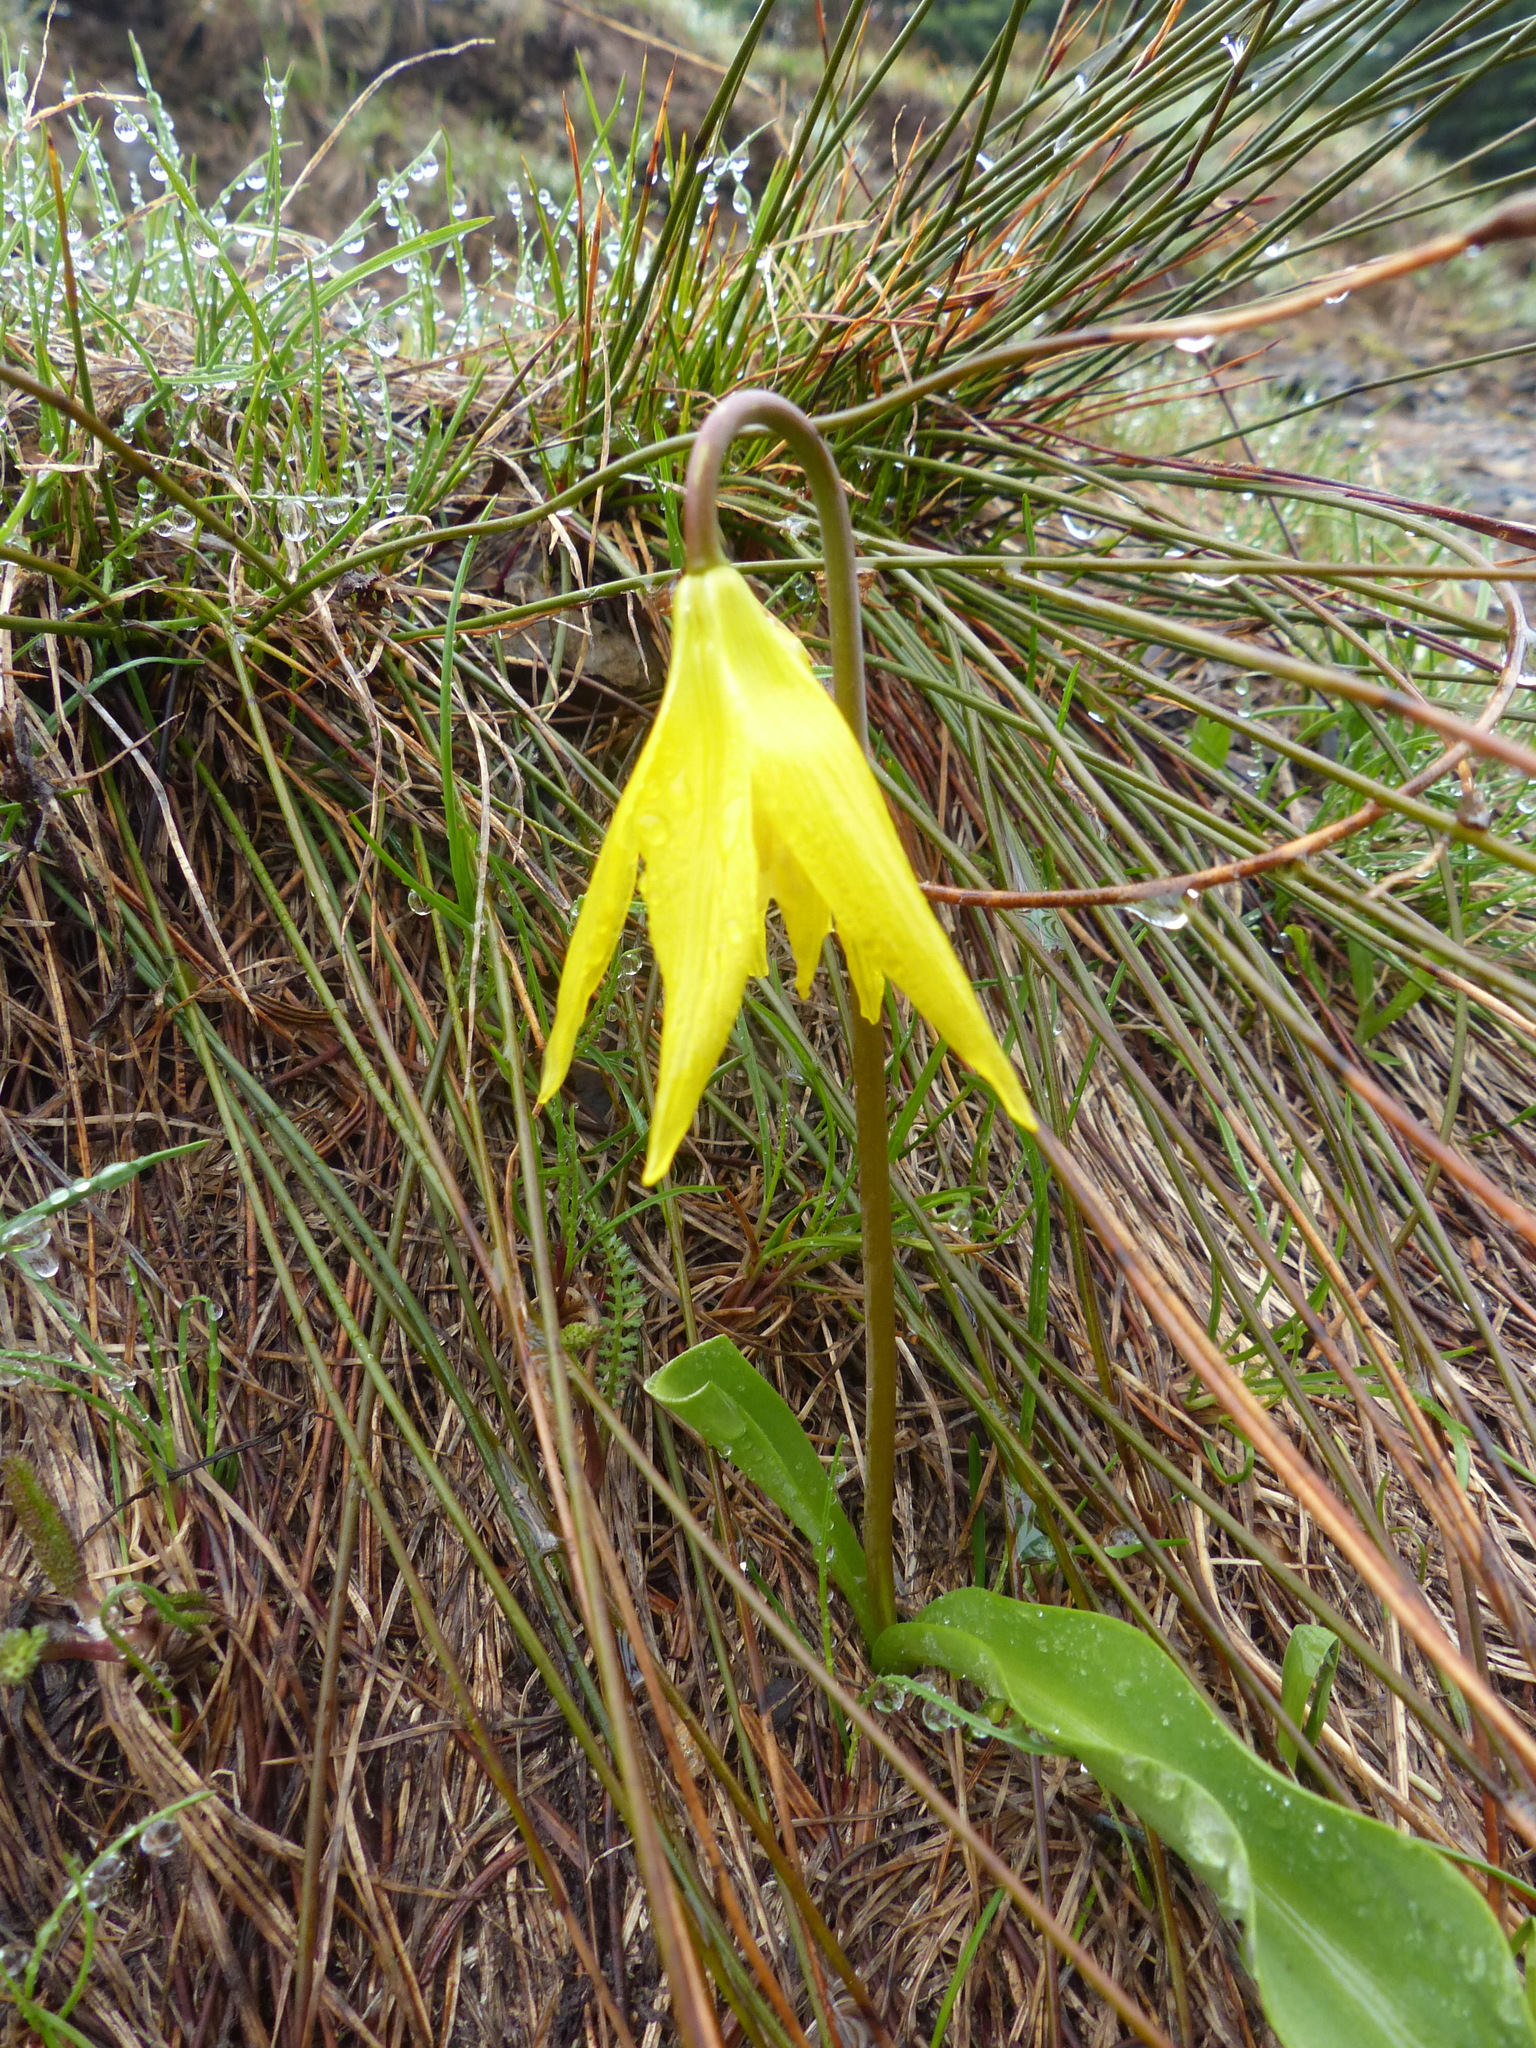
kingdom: Plantae
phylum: Tracheophyta
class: Liliopsida
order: Liliales
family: Liliaceae
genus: Erythronium
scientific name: Erythronium grandiflorum
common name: Avalanche-lily
